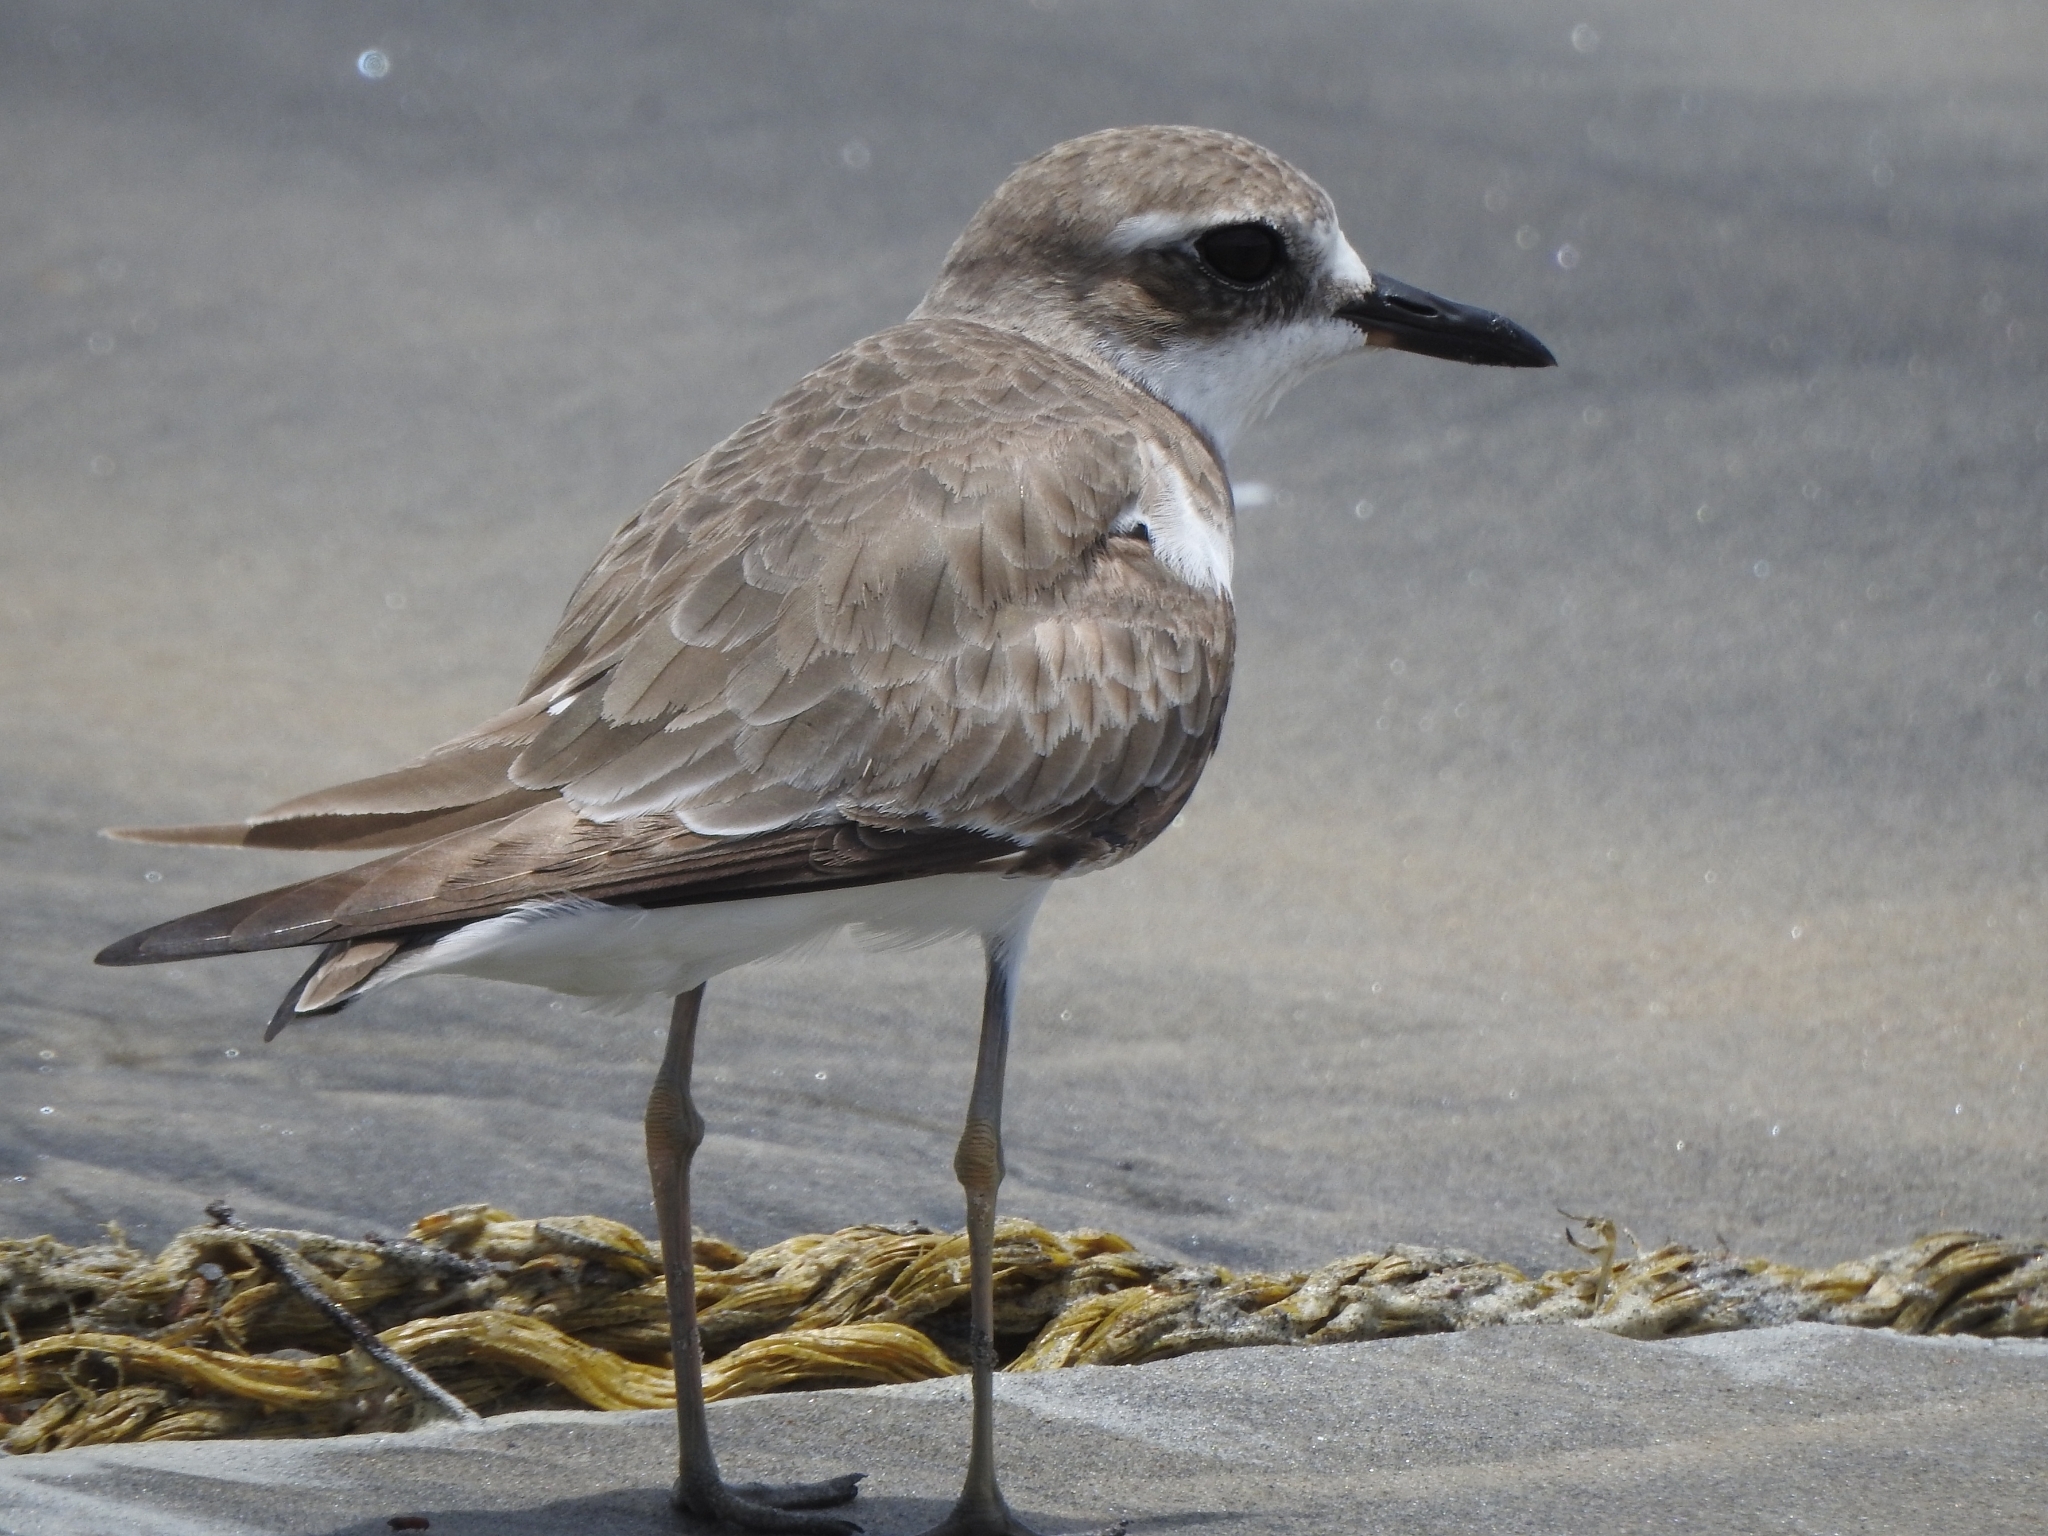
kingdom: Animalia
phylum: Chordata
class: Aves
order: Charadriiformes
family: Charadriidae
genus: Charadrius
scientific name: Charadrius leschenaultii
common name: Greater sand plover
